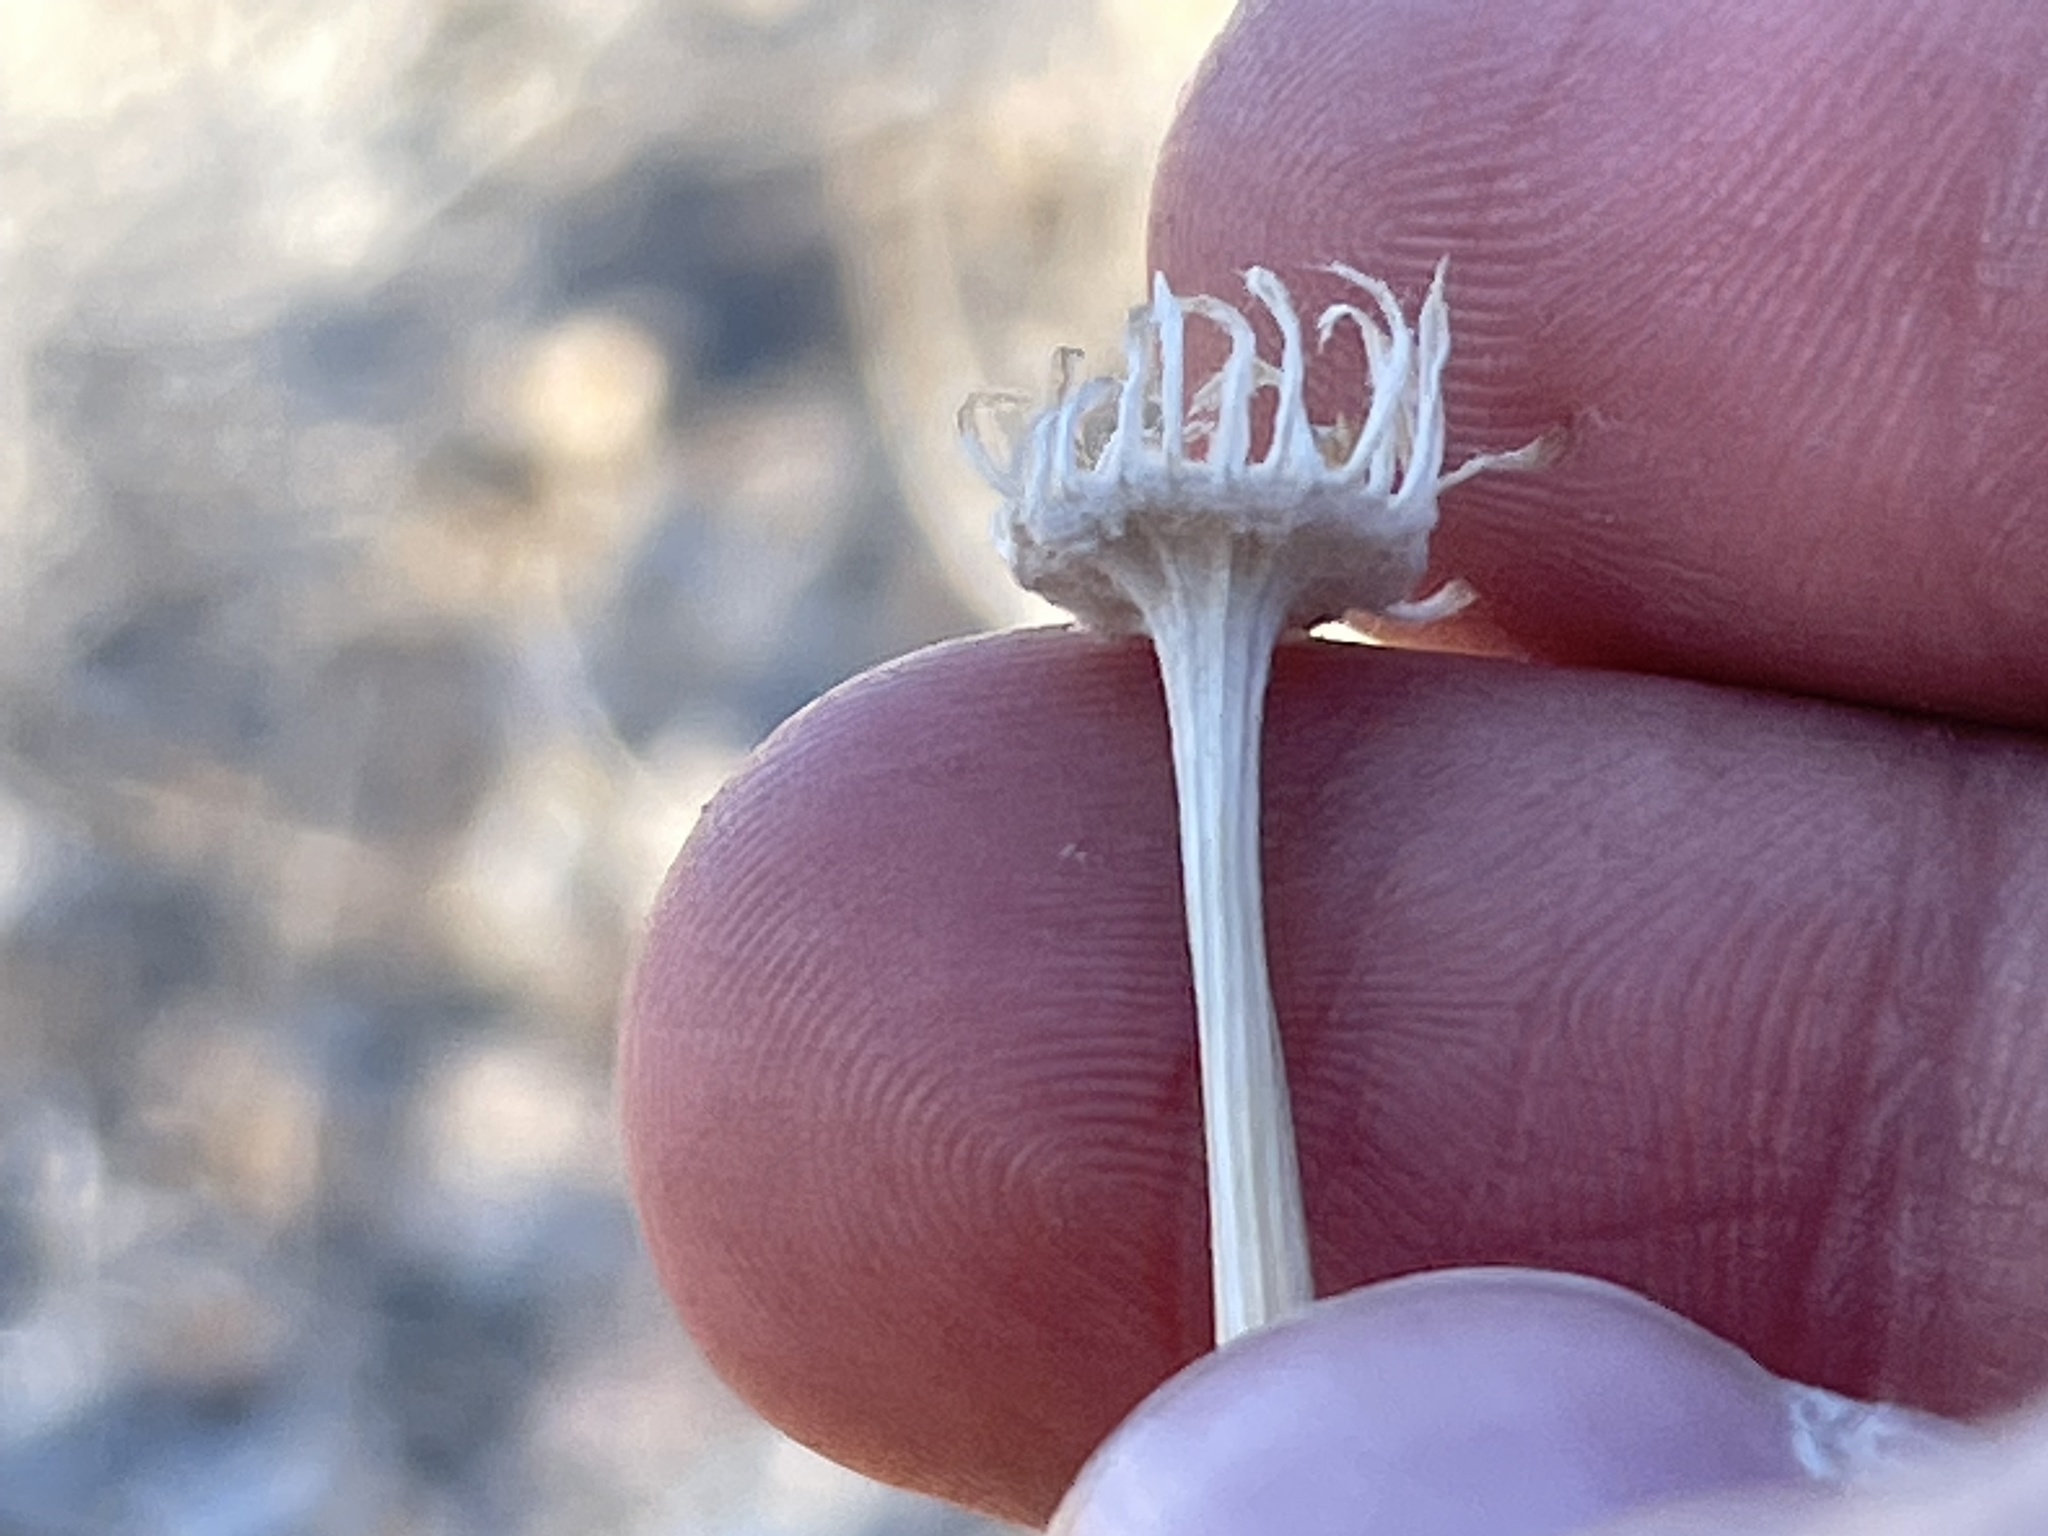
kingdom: Plantae
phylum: Tracheophyta
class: Magnoliopsida
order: Asterales
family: Asteraceae
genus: Baileya
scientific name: Baileya multiradiata
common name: Desert-marigold
